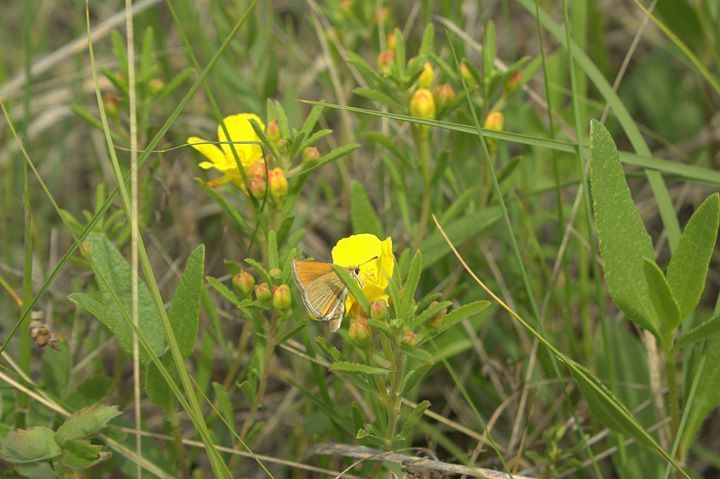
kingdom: Plantae
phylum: Tracheophyta
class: Magnoliopsida
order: Myrtales
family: Onagraceae
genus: Oenothera
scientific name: Oenothera villosa
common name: Hairy evening-primrose
